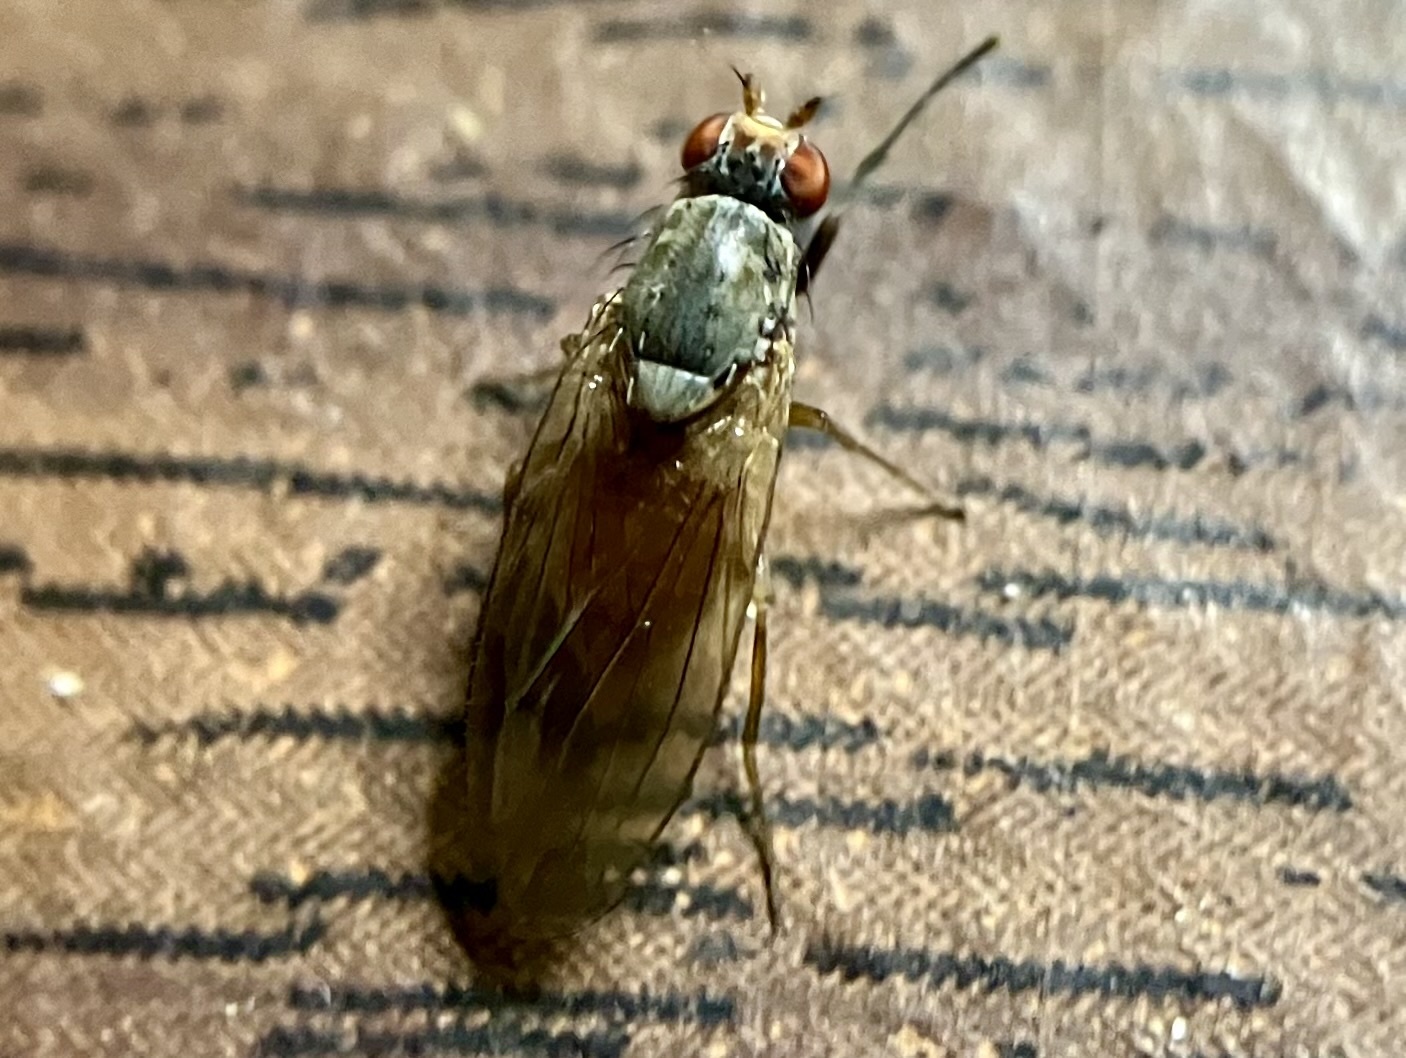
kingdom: Animalia
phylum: Arthropoda
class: Insecta
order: Diptera
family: Heleomyzidae
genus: Tephrochlamys
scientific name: Tephrochlamys flavipes
